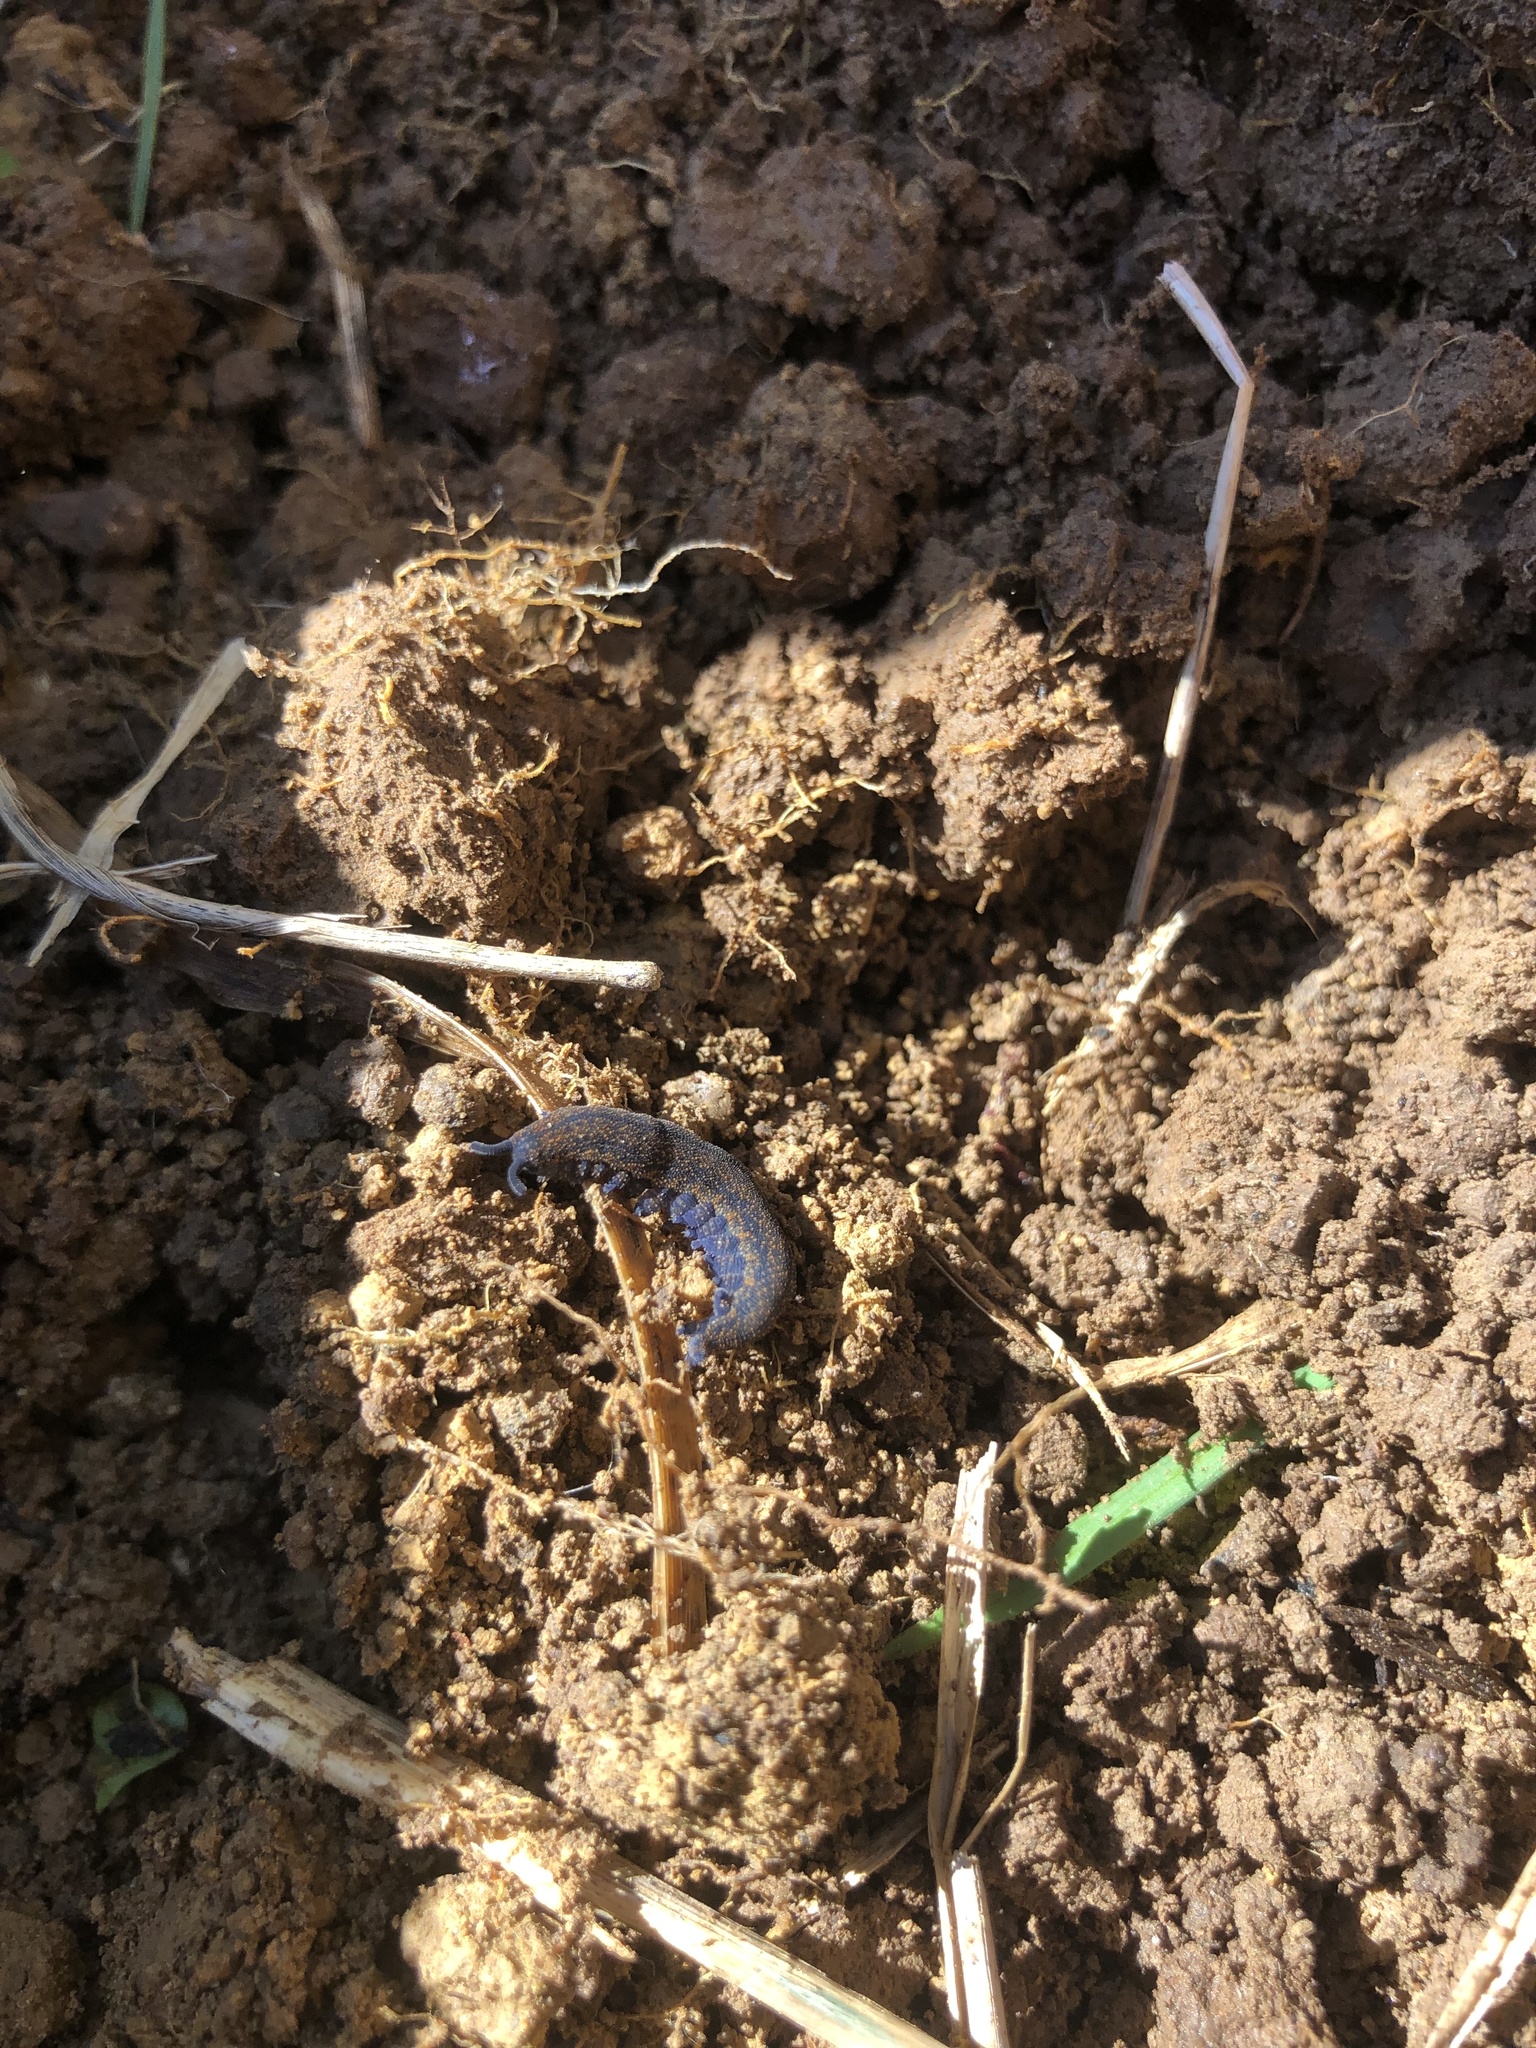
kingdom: Animalia
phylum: Onychophora
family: Peripatopsidae
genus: Peripatoides
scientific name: Peripatoides novaezealandiae
